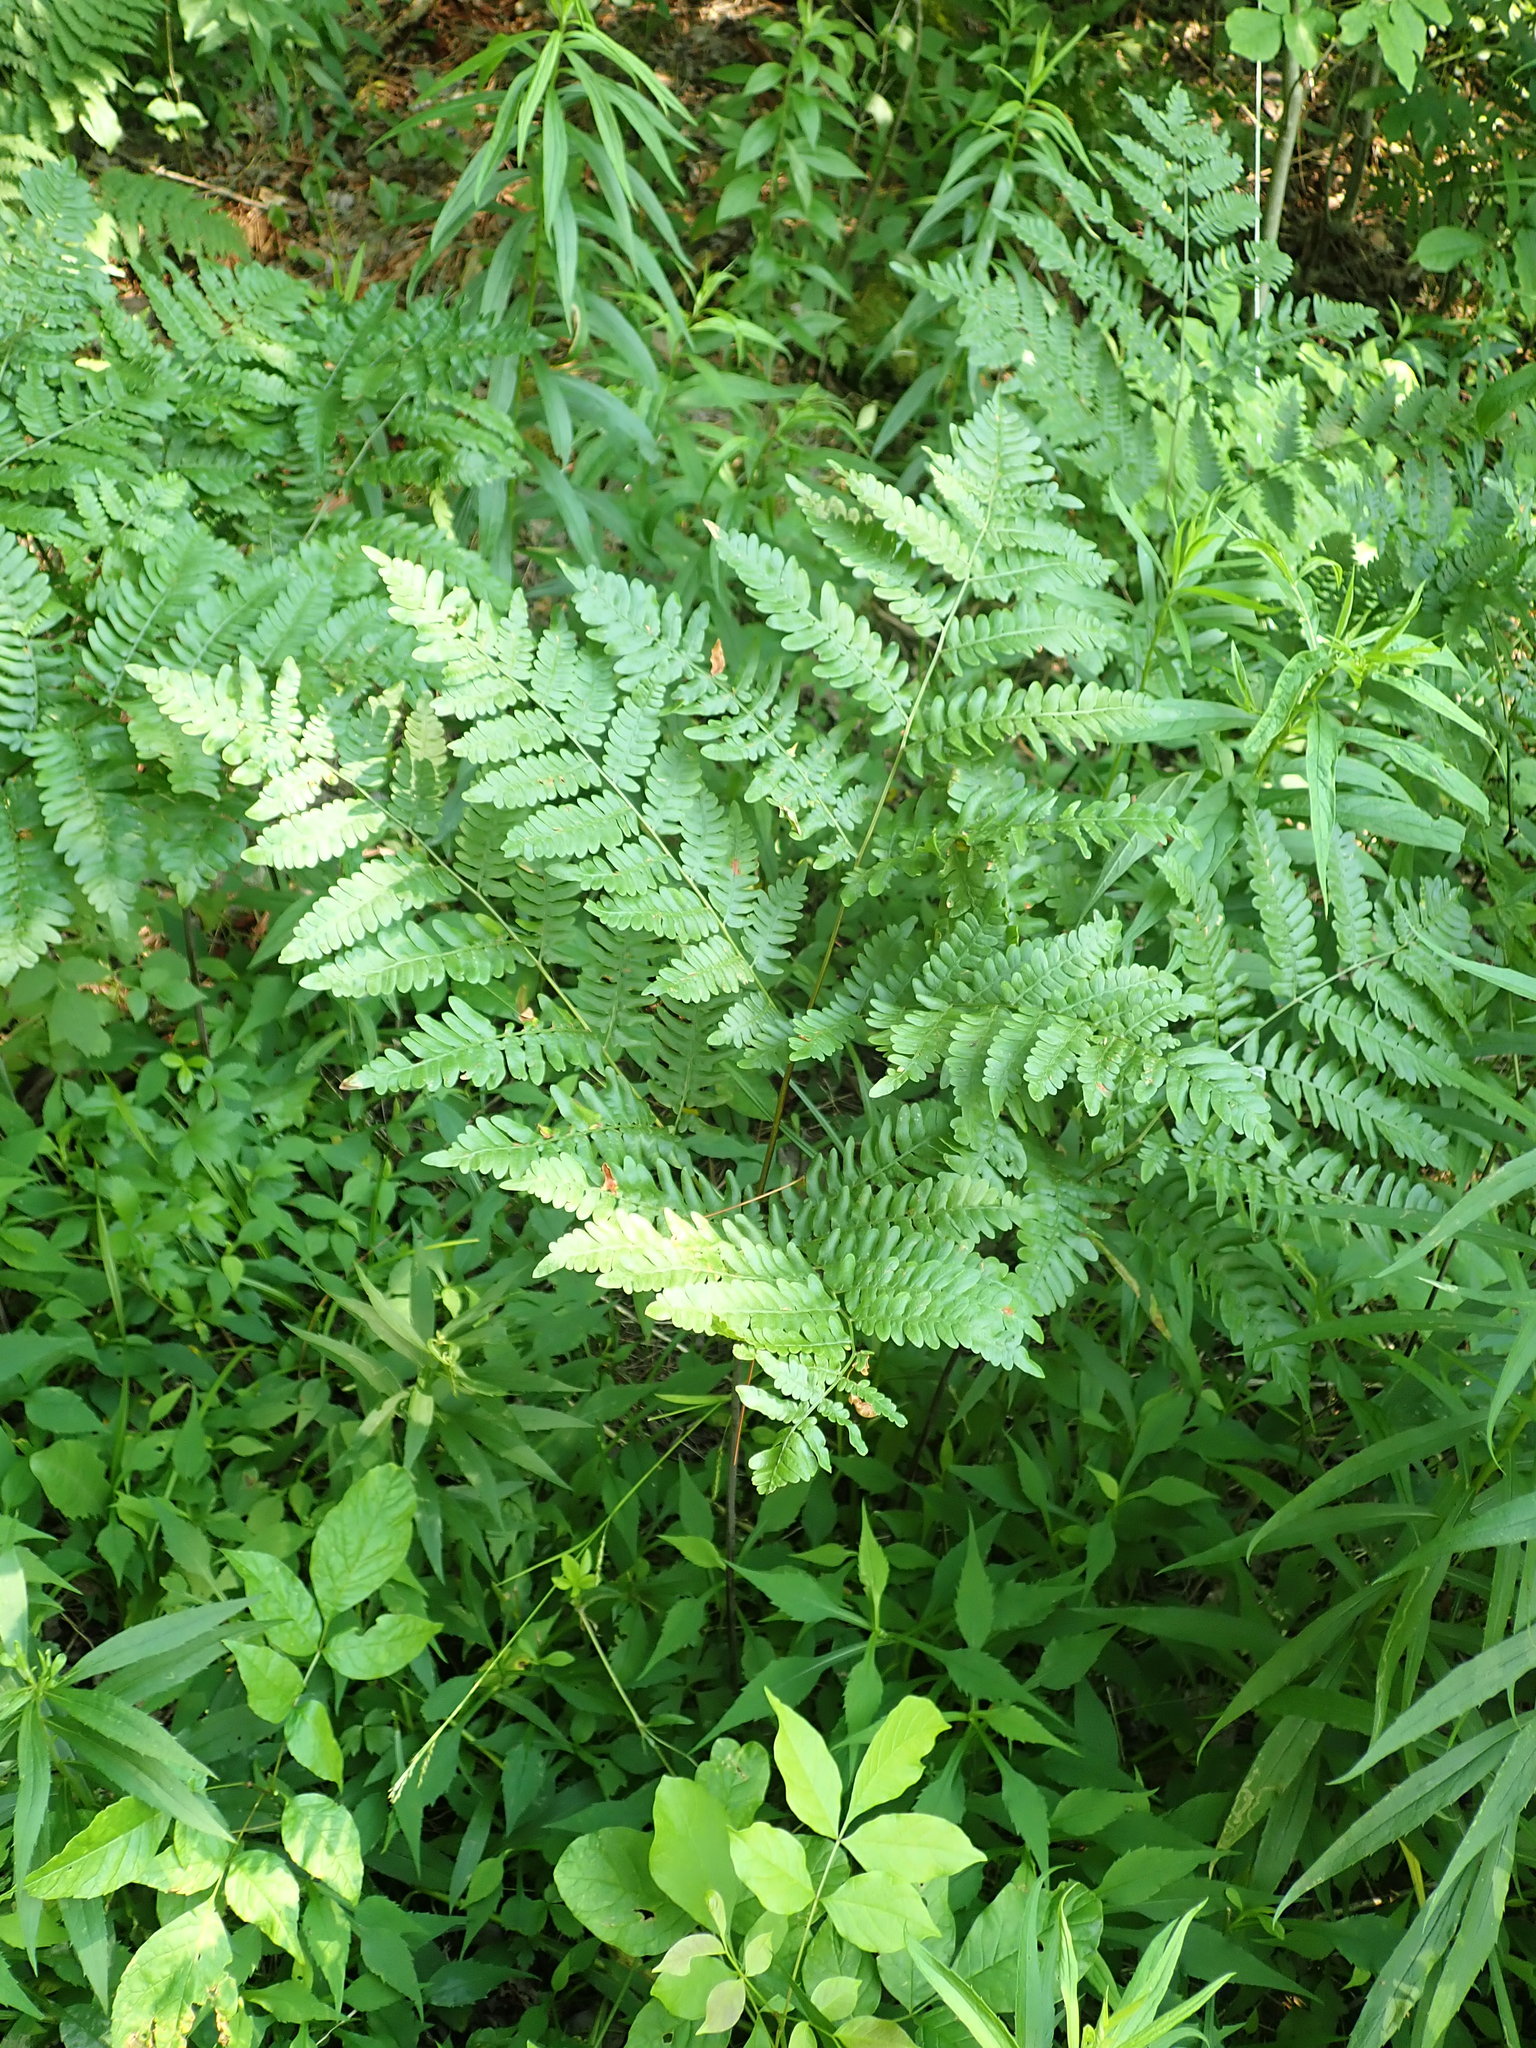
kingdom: Plantae
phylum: Tracheophyta
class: Polypodiopsida
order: Polypodiales
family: Dennstaedtiaceae
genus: Pteridium
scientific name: Pteridium aquilinum
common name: Bracken
